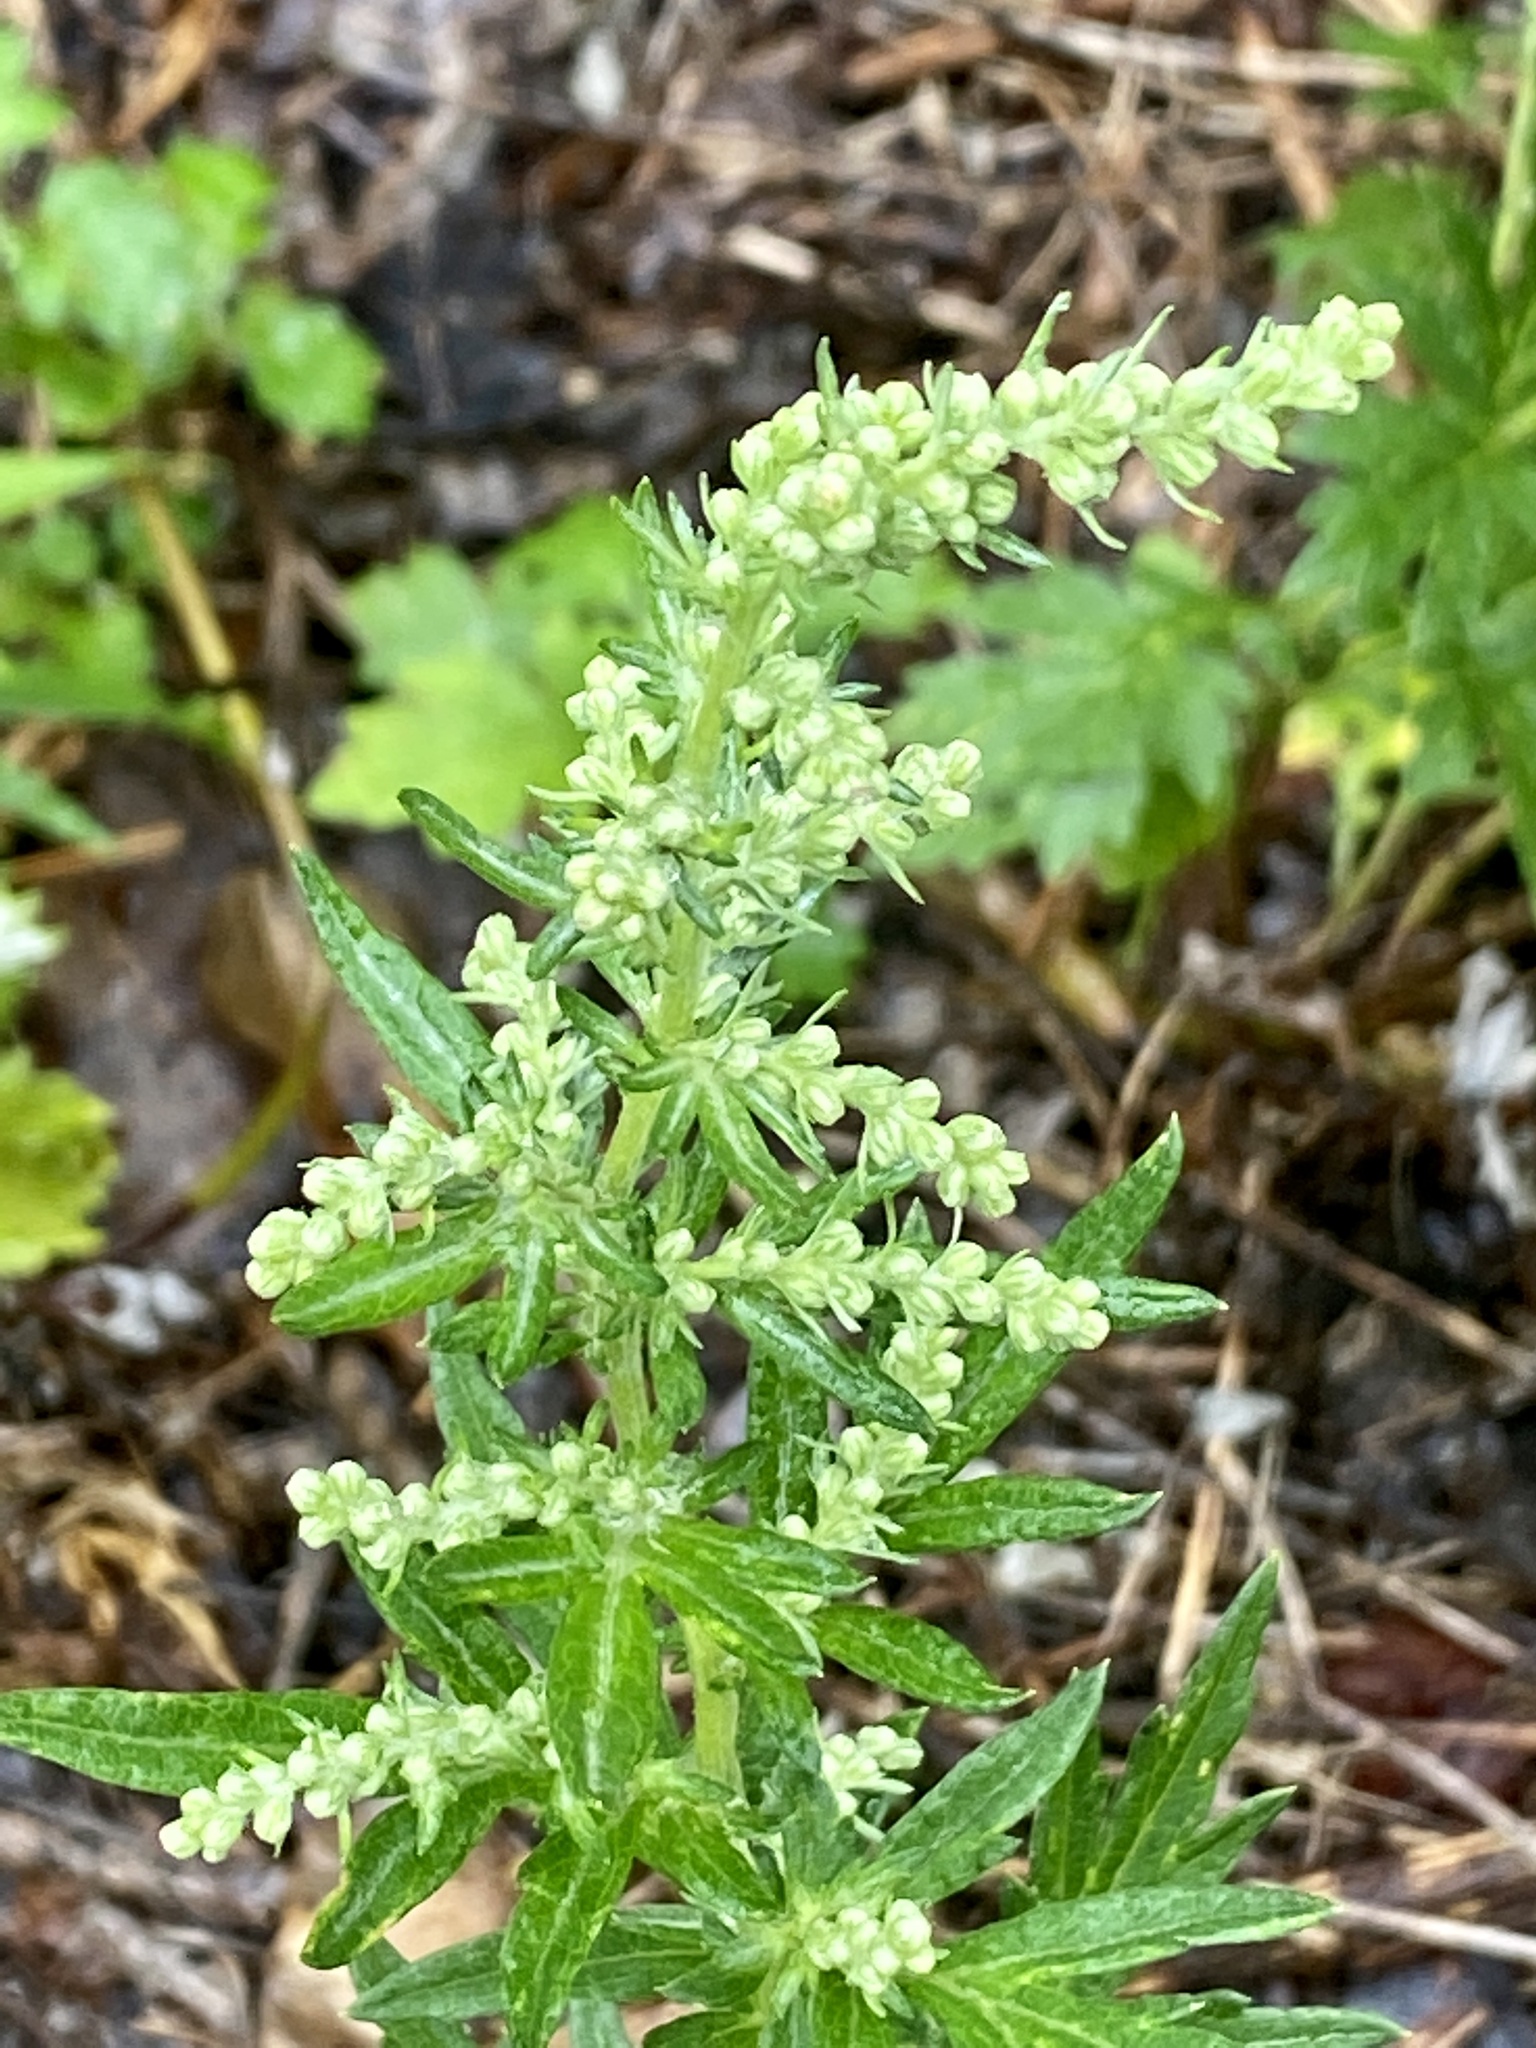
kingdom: Plantae
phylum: Tracheophyta
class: Magnoliopsida
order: Asterales
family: Asteraceae
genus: Artemisia
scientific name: Artemisia vulgaris
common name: Mugwort
